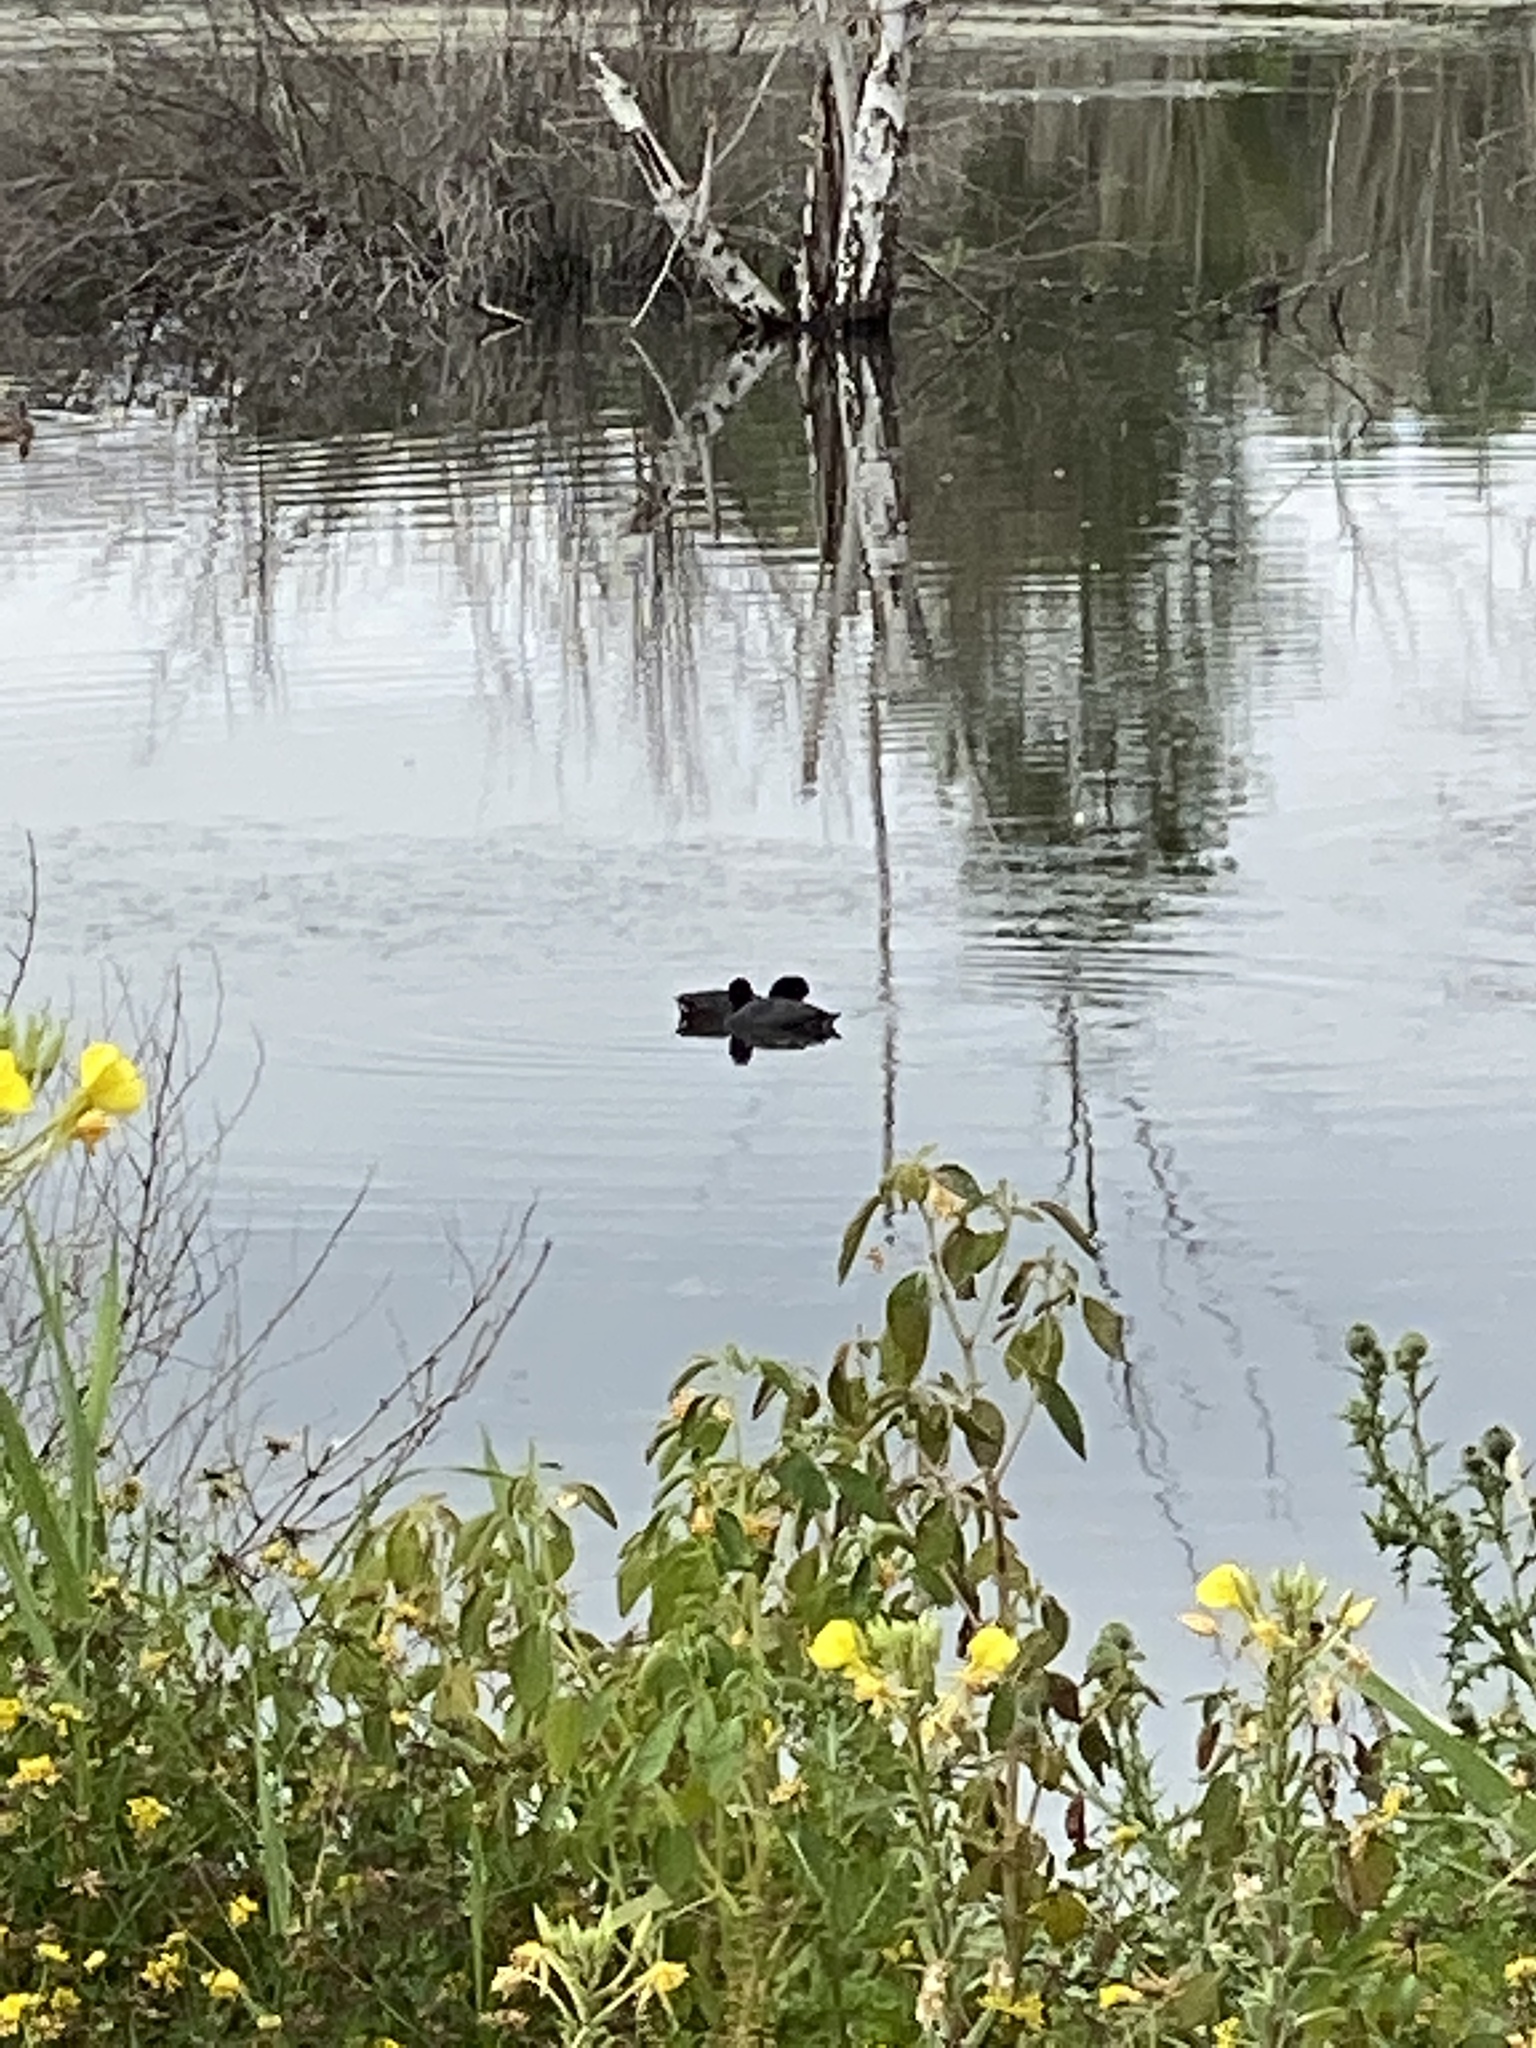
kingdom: Animalia
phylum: Chordata
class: Aves
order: Gruiformes
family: Rallidae
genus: Fulica
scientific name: Fulica americana
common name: American coot
